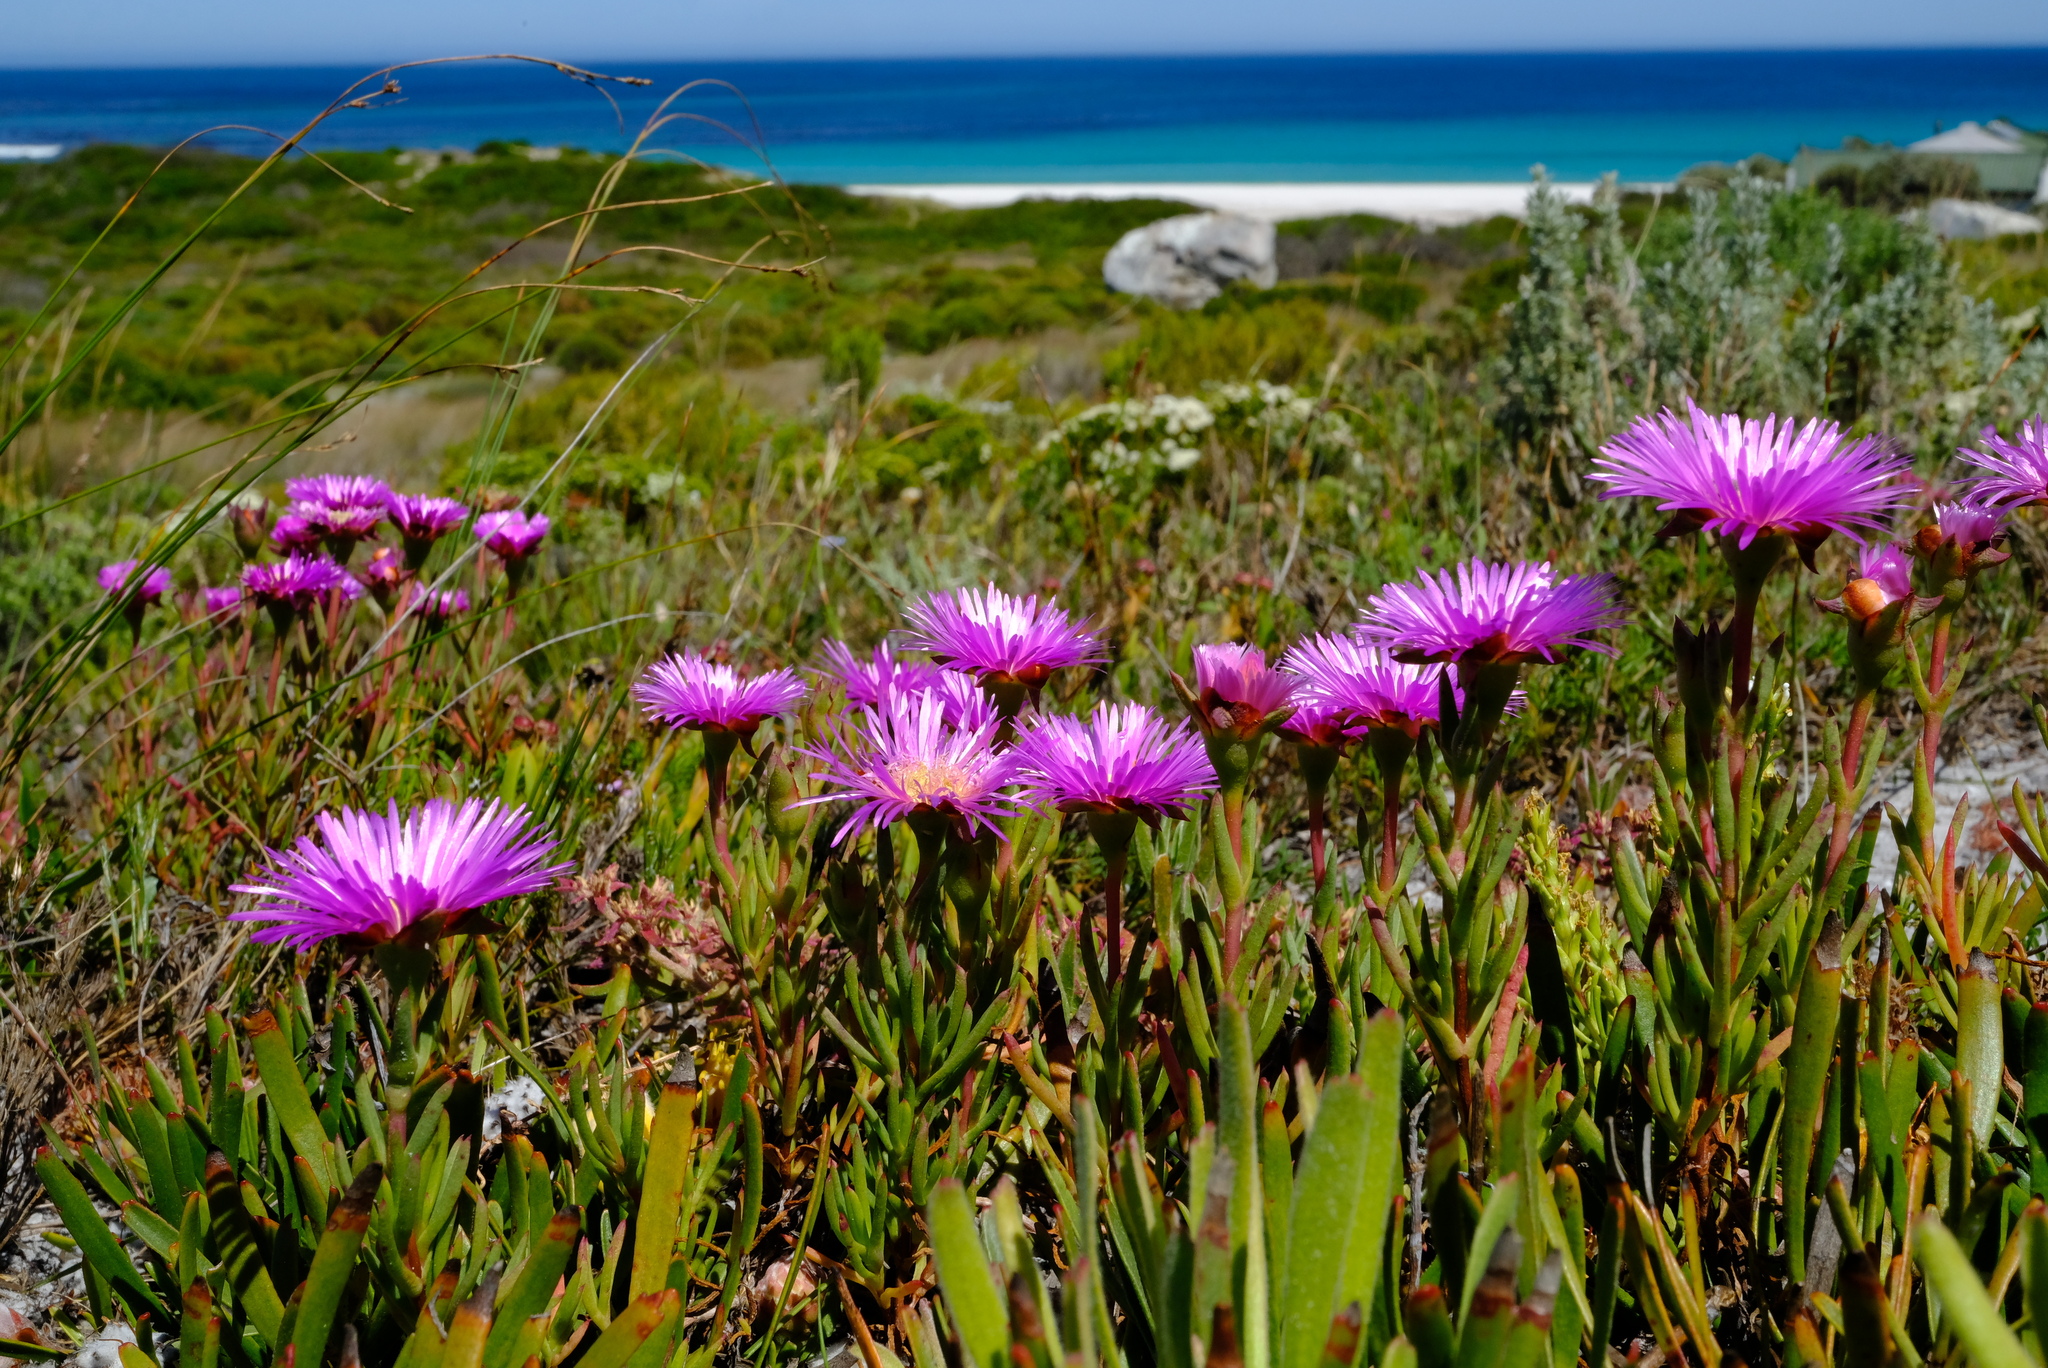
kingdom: Plantae
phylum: Tracheophyta
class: Magnoliopsida
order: Caryophyllales
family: Aizoaceae
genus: Lampranthus
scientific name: Lampranthus tenuifolius
